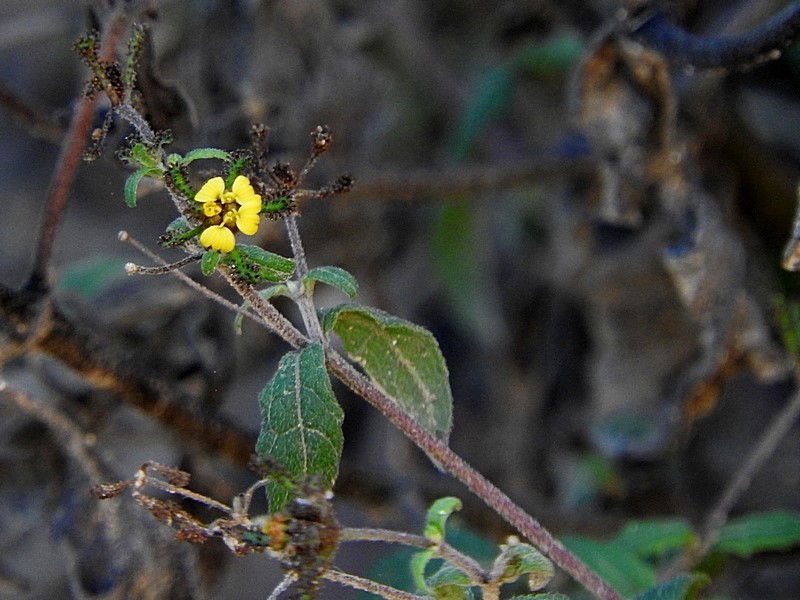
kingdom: Plantae
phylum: Tracheophyta
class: Magnoliopsida
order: Asterales
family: Asteraceae
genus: Sigesbeckia
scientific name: Sigesbeckia orientalis
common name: Eastern st paul's-wort
